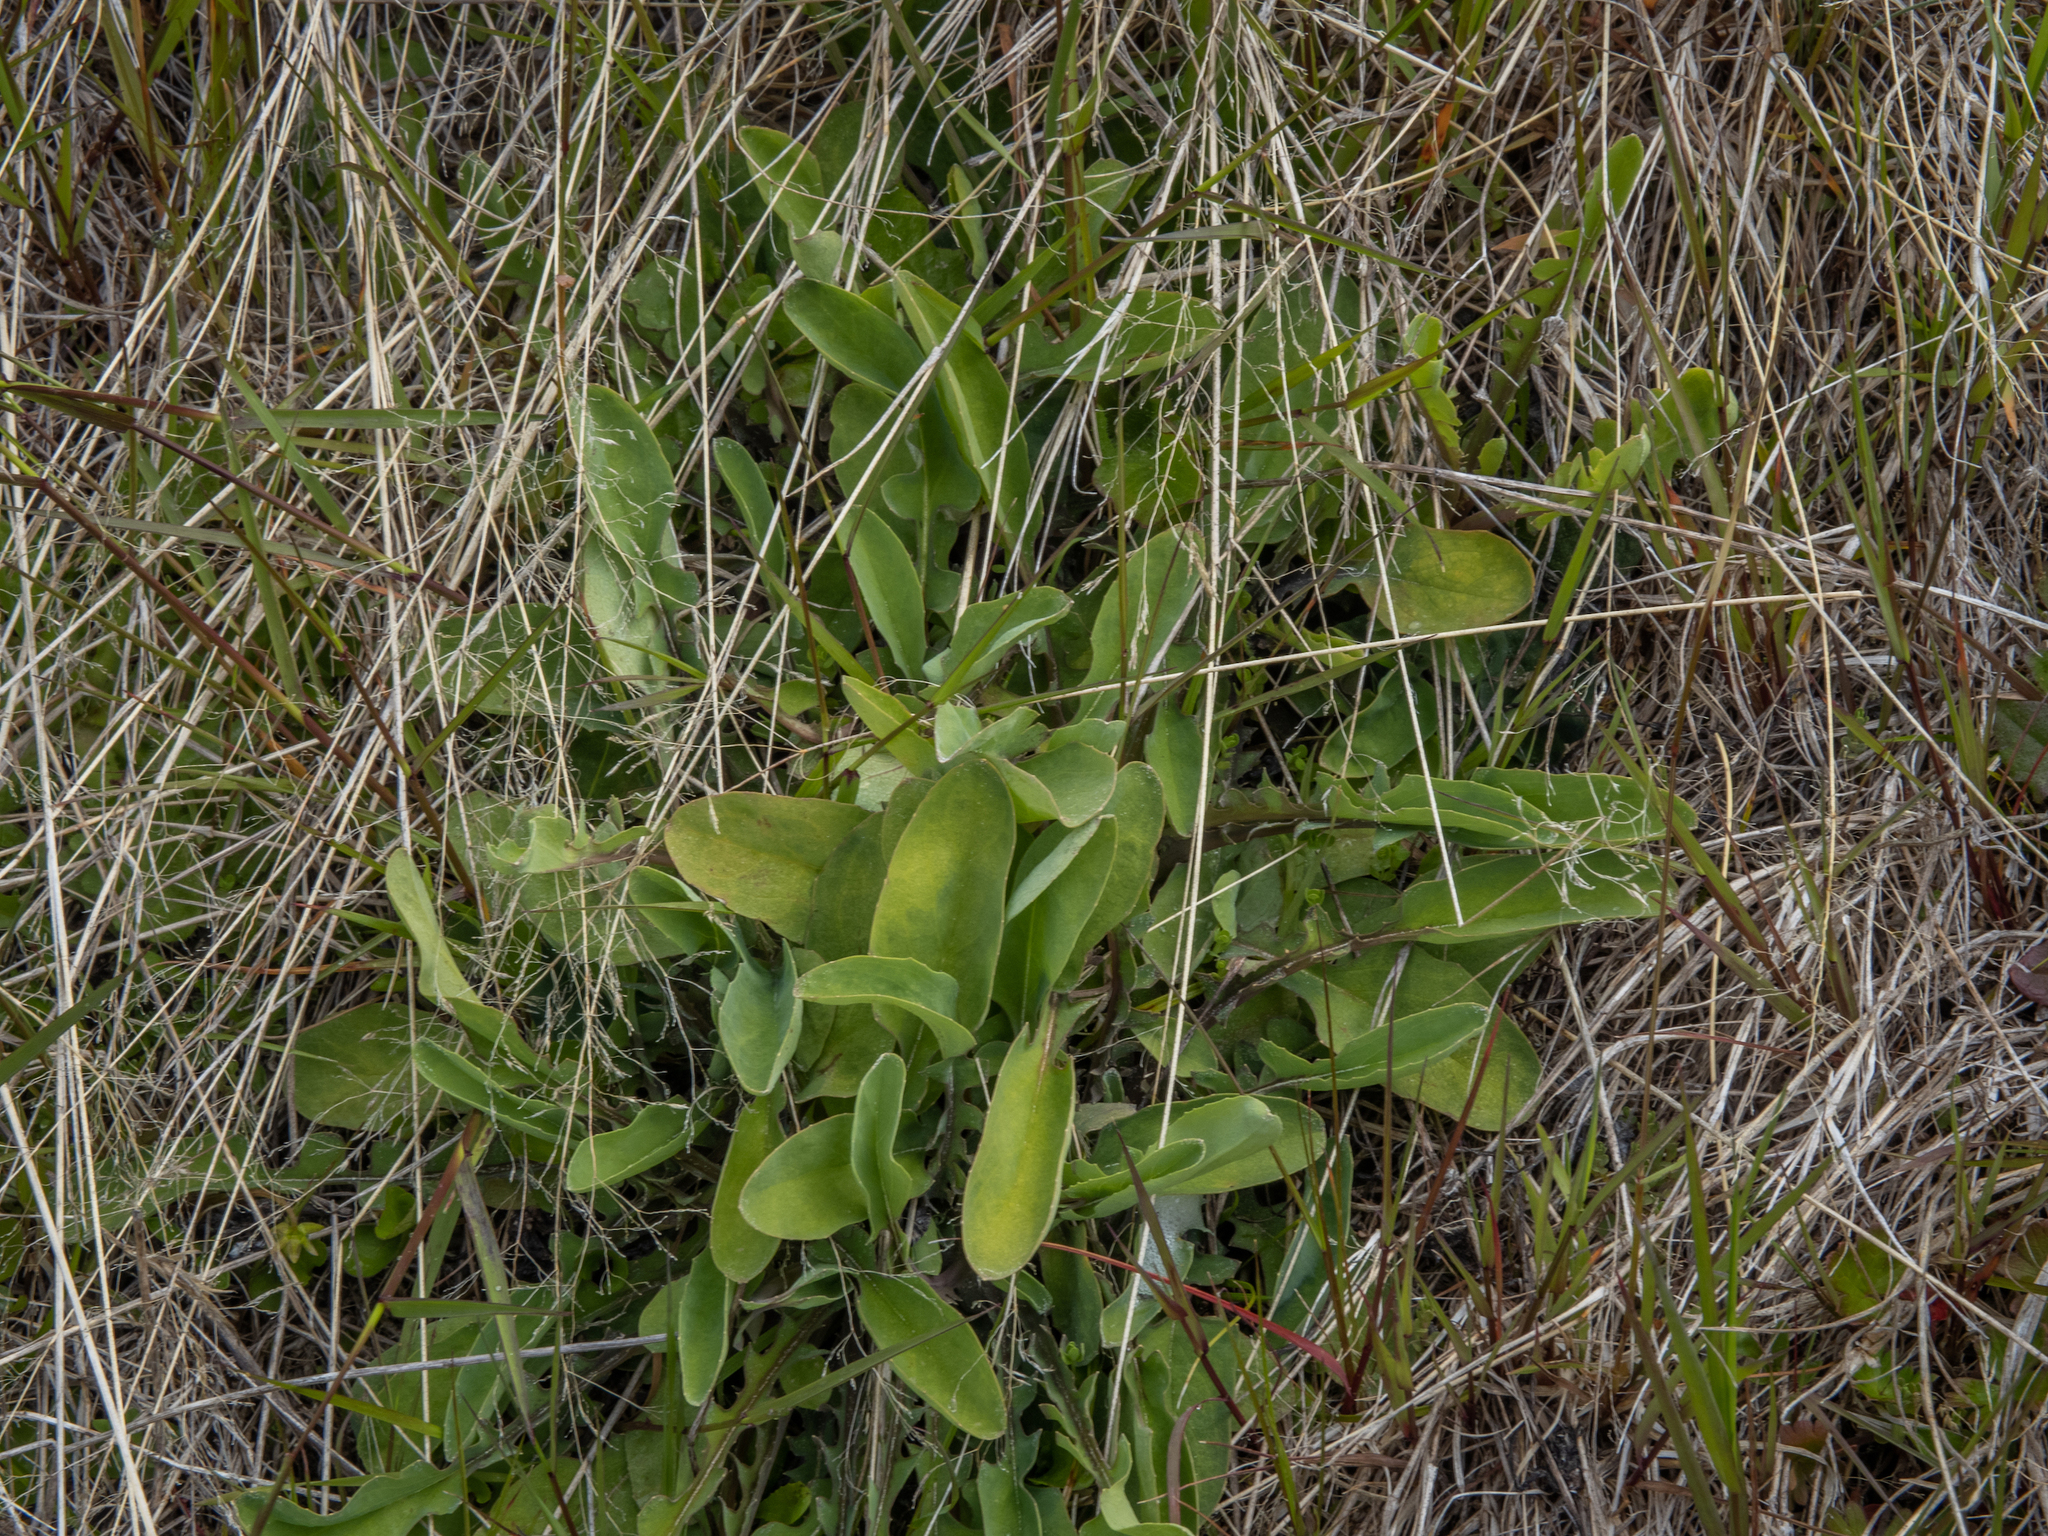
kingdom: Plantae
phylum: Tracheophyta
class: Magnoliopsida
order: Asterales
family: Asteraceae
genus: Sonchus
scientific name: Sonchus novae-zelandiae
